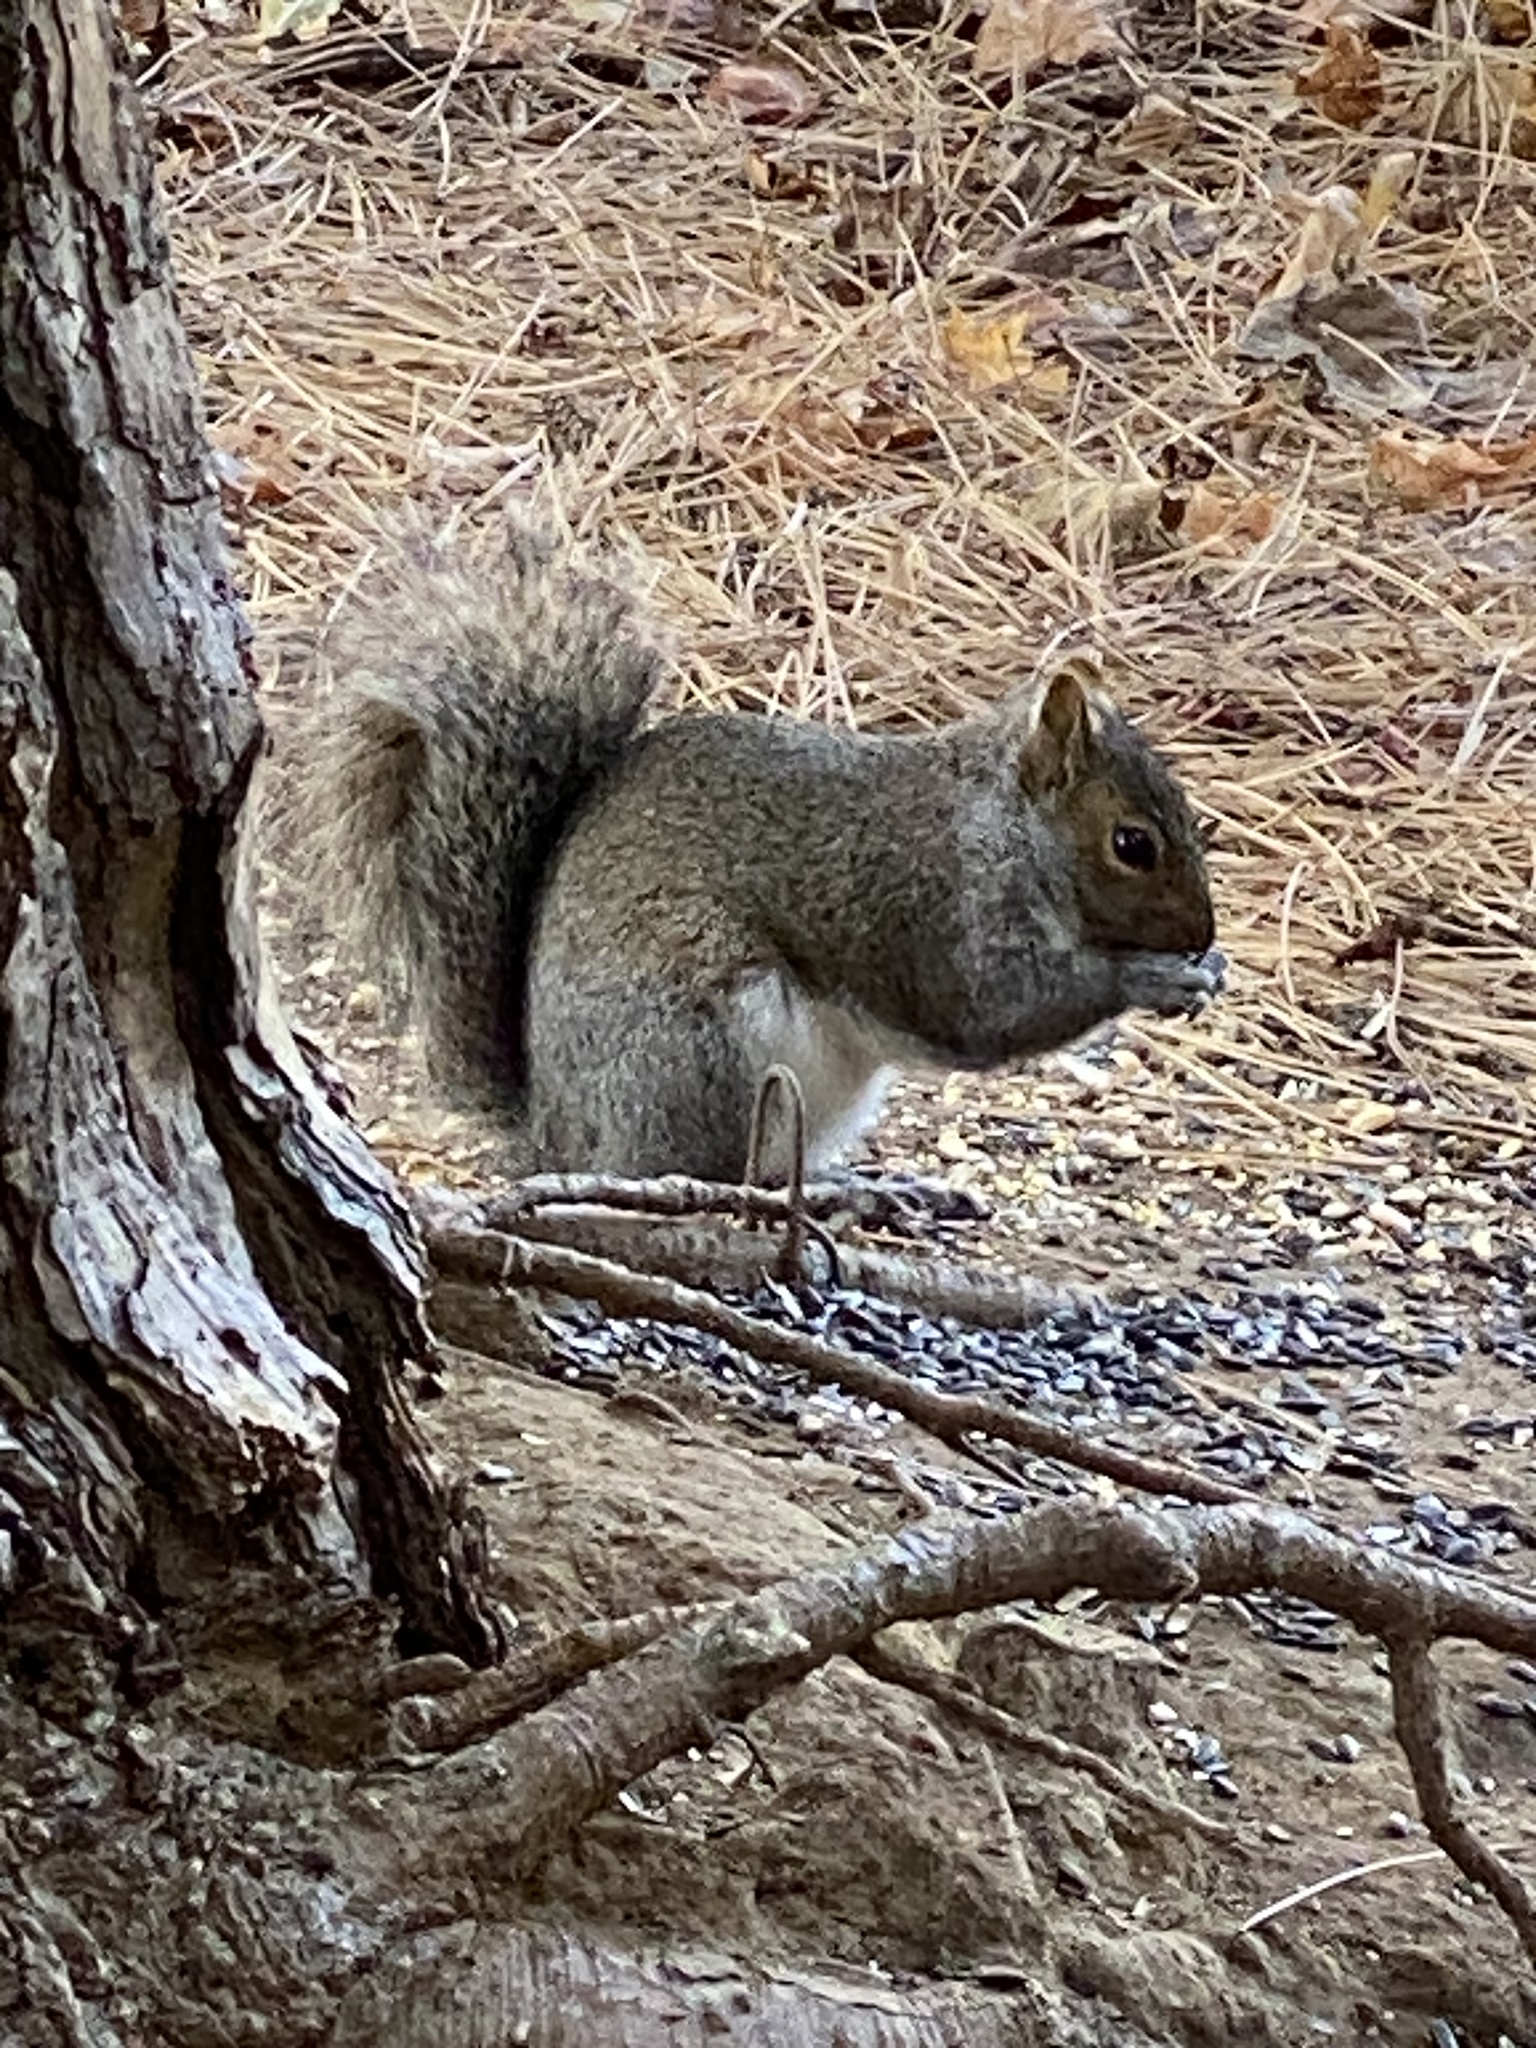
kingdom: Animalia
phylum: Chordata
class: Mammalia
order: Rodentia
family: Sciuridae
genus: Sciurus
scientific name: Sciurus carolinensis
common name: Eastern gray squirrel
